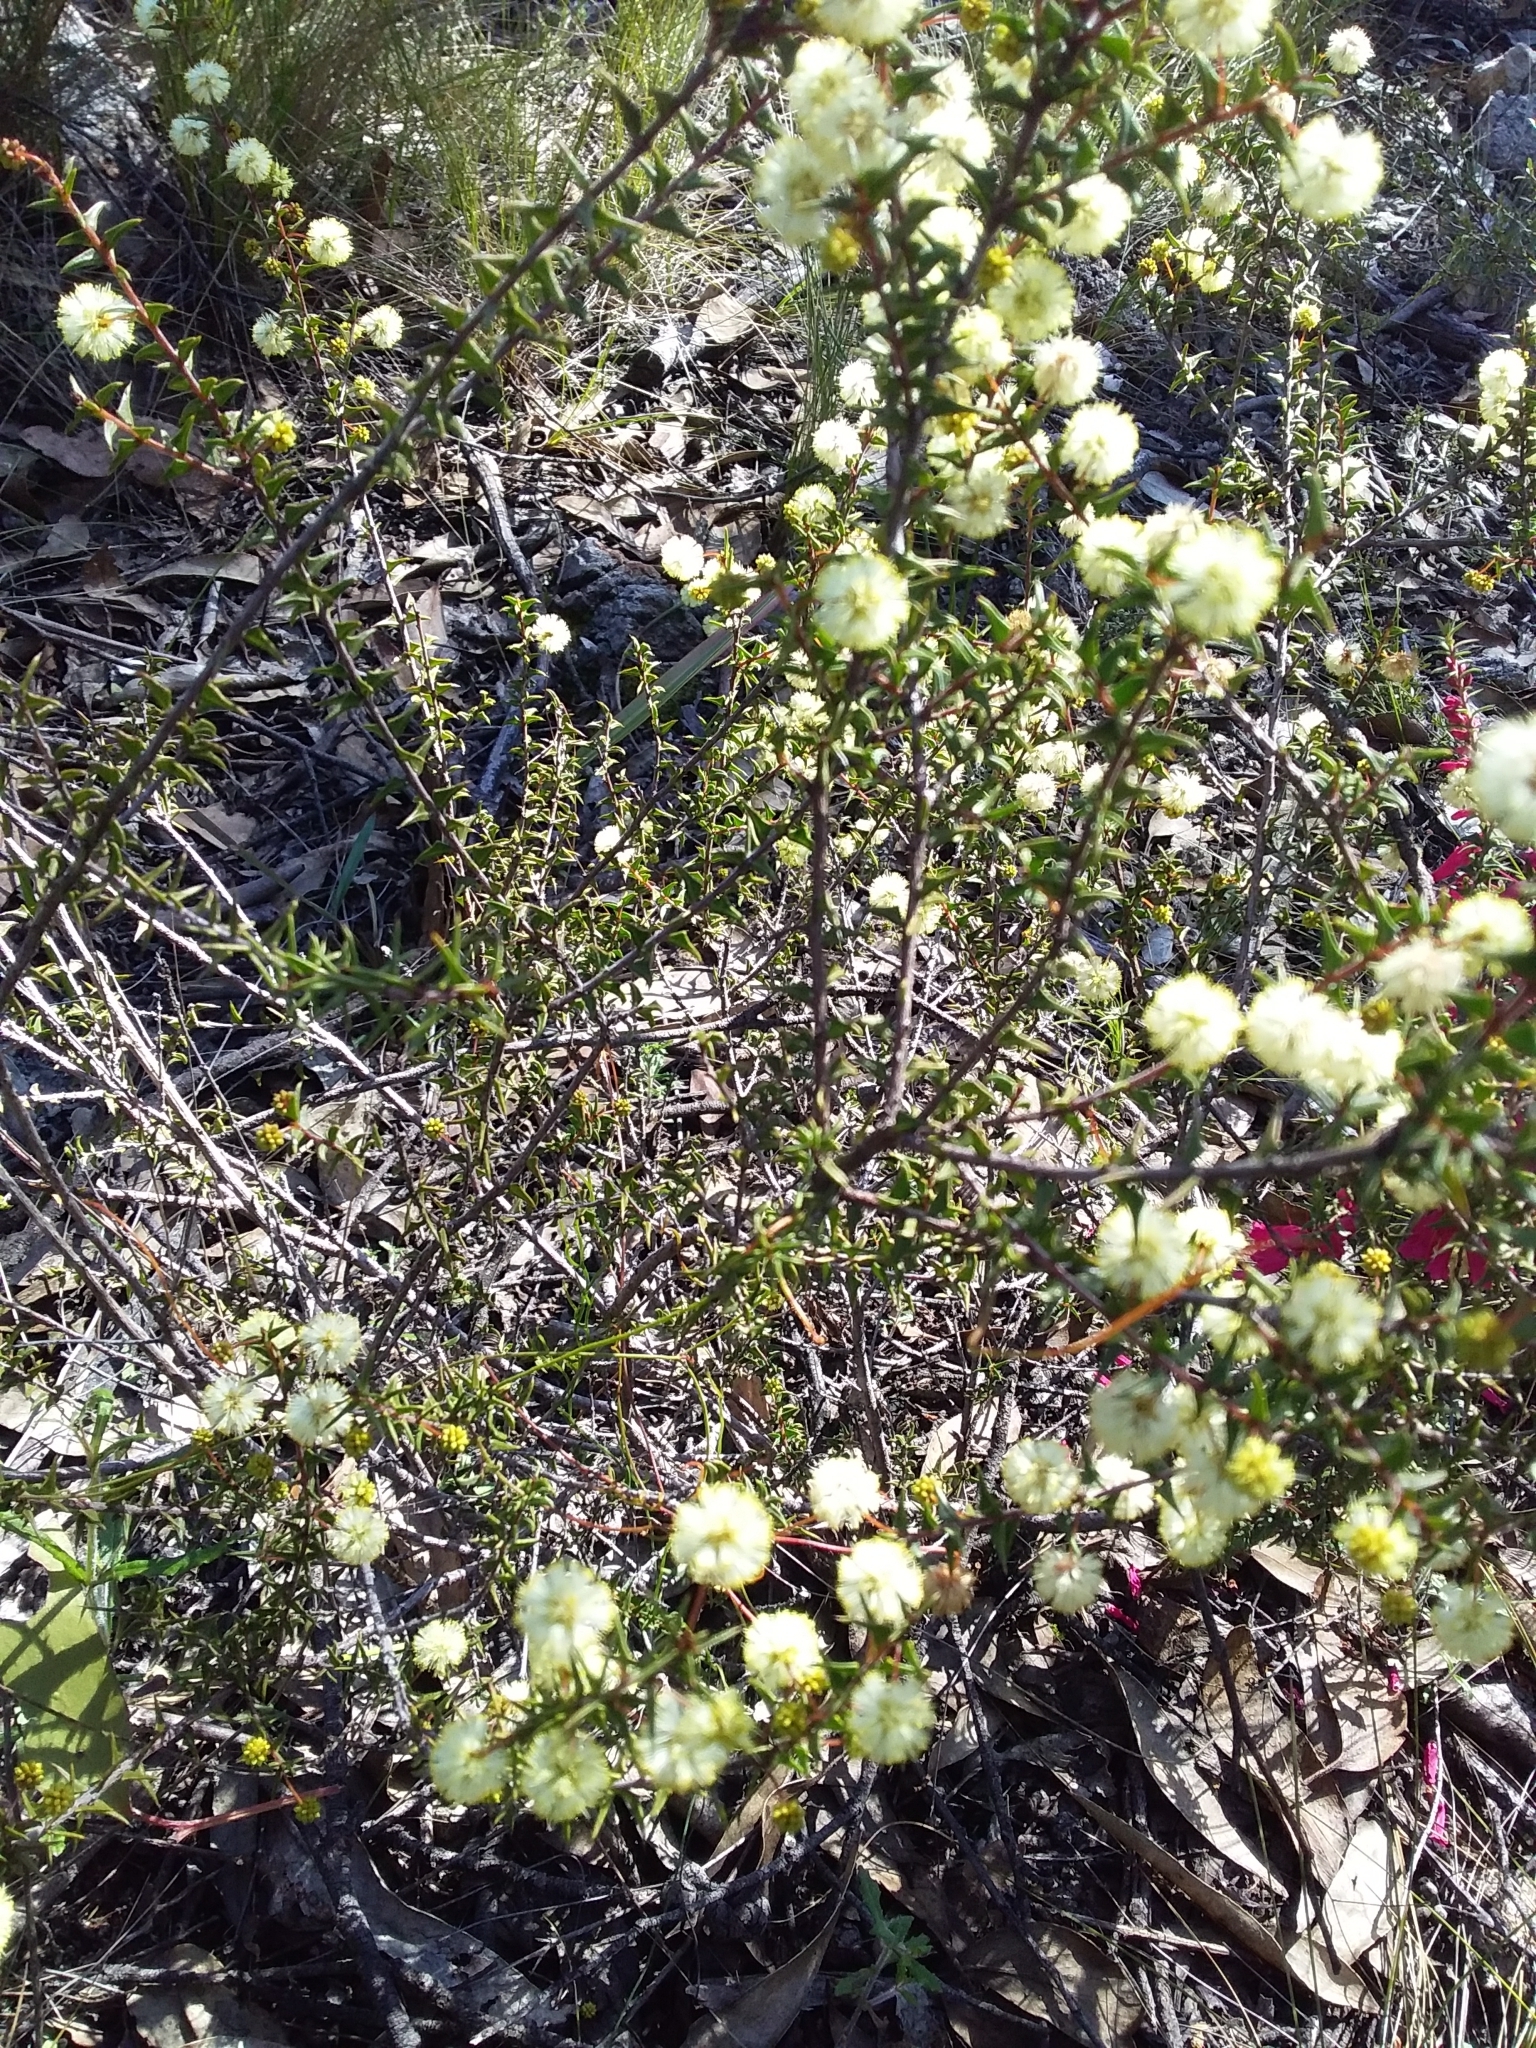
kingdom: Plantae
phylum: Tracheophyta
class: Magnoliopsida
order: Fabales
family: Fabaceae
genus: Acacia
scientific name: Acacia gunnii
